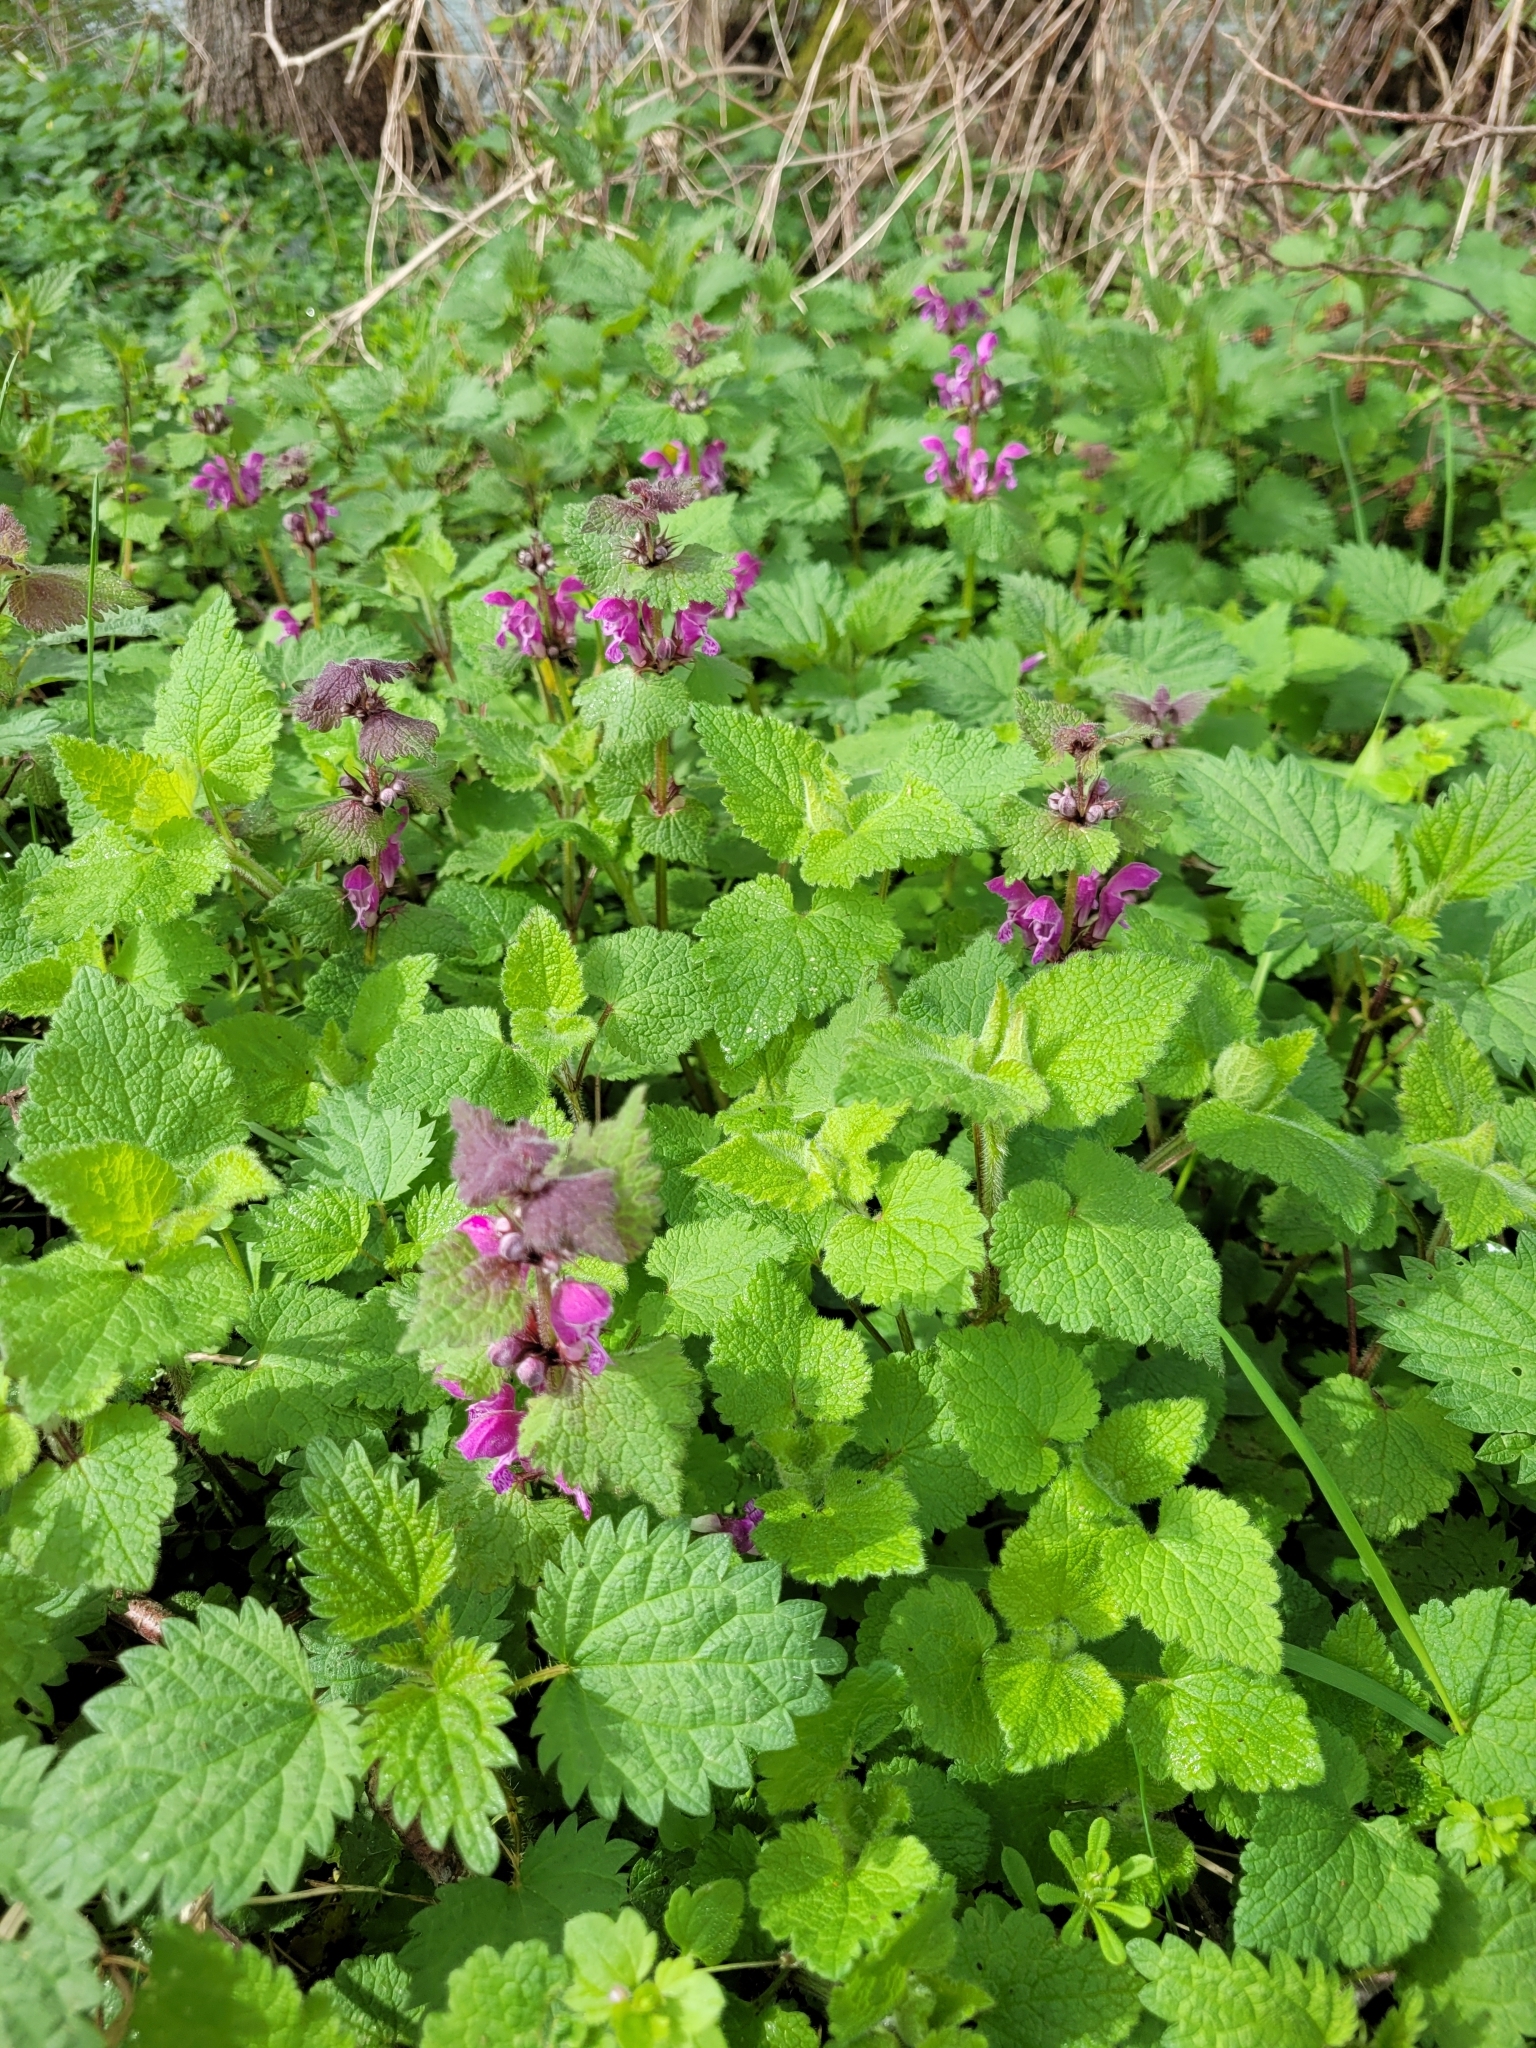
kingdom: Plantae
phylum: Tracheophyta
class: Magnoliopsida
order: Lamiales
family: Lamiaceae
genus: Lamium
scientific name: Lamium maculatum
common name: Spotted dead-nettle
